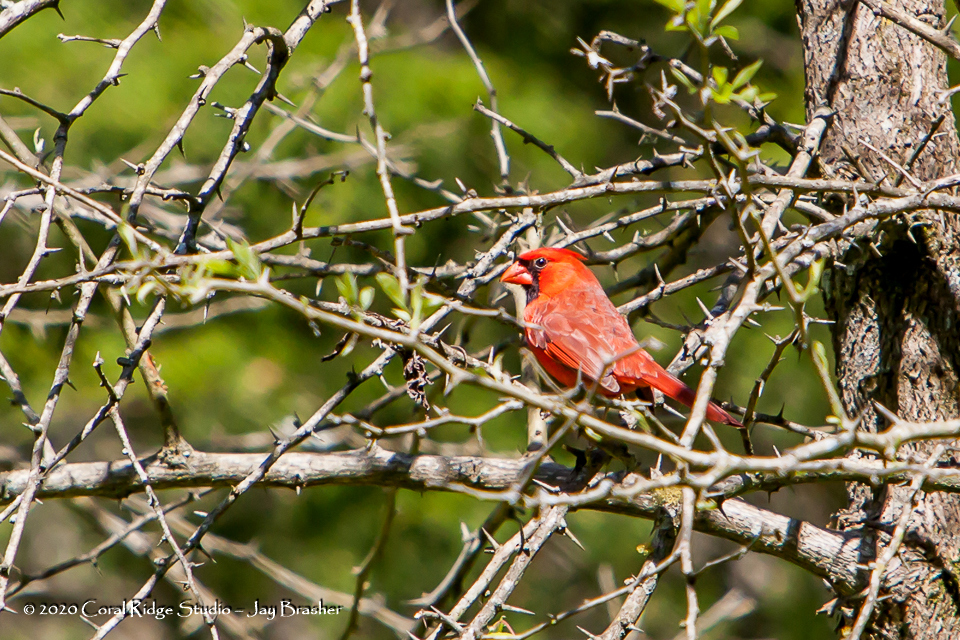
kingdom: Animalia
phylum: Chordata
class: Aves
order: Passeriformes
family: Cardinalidae
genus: Cardinalis
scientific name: Cardinalis cardinalis
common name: Northern cardinal
